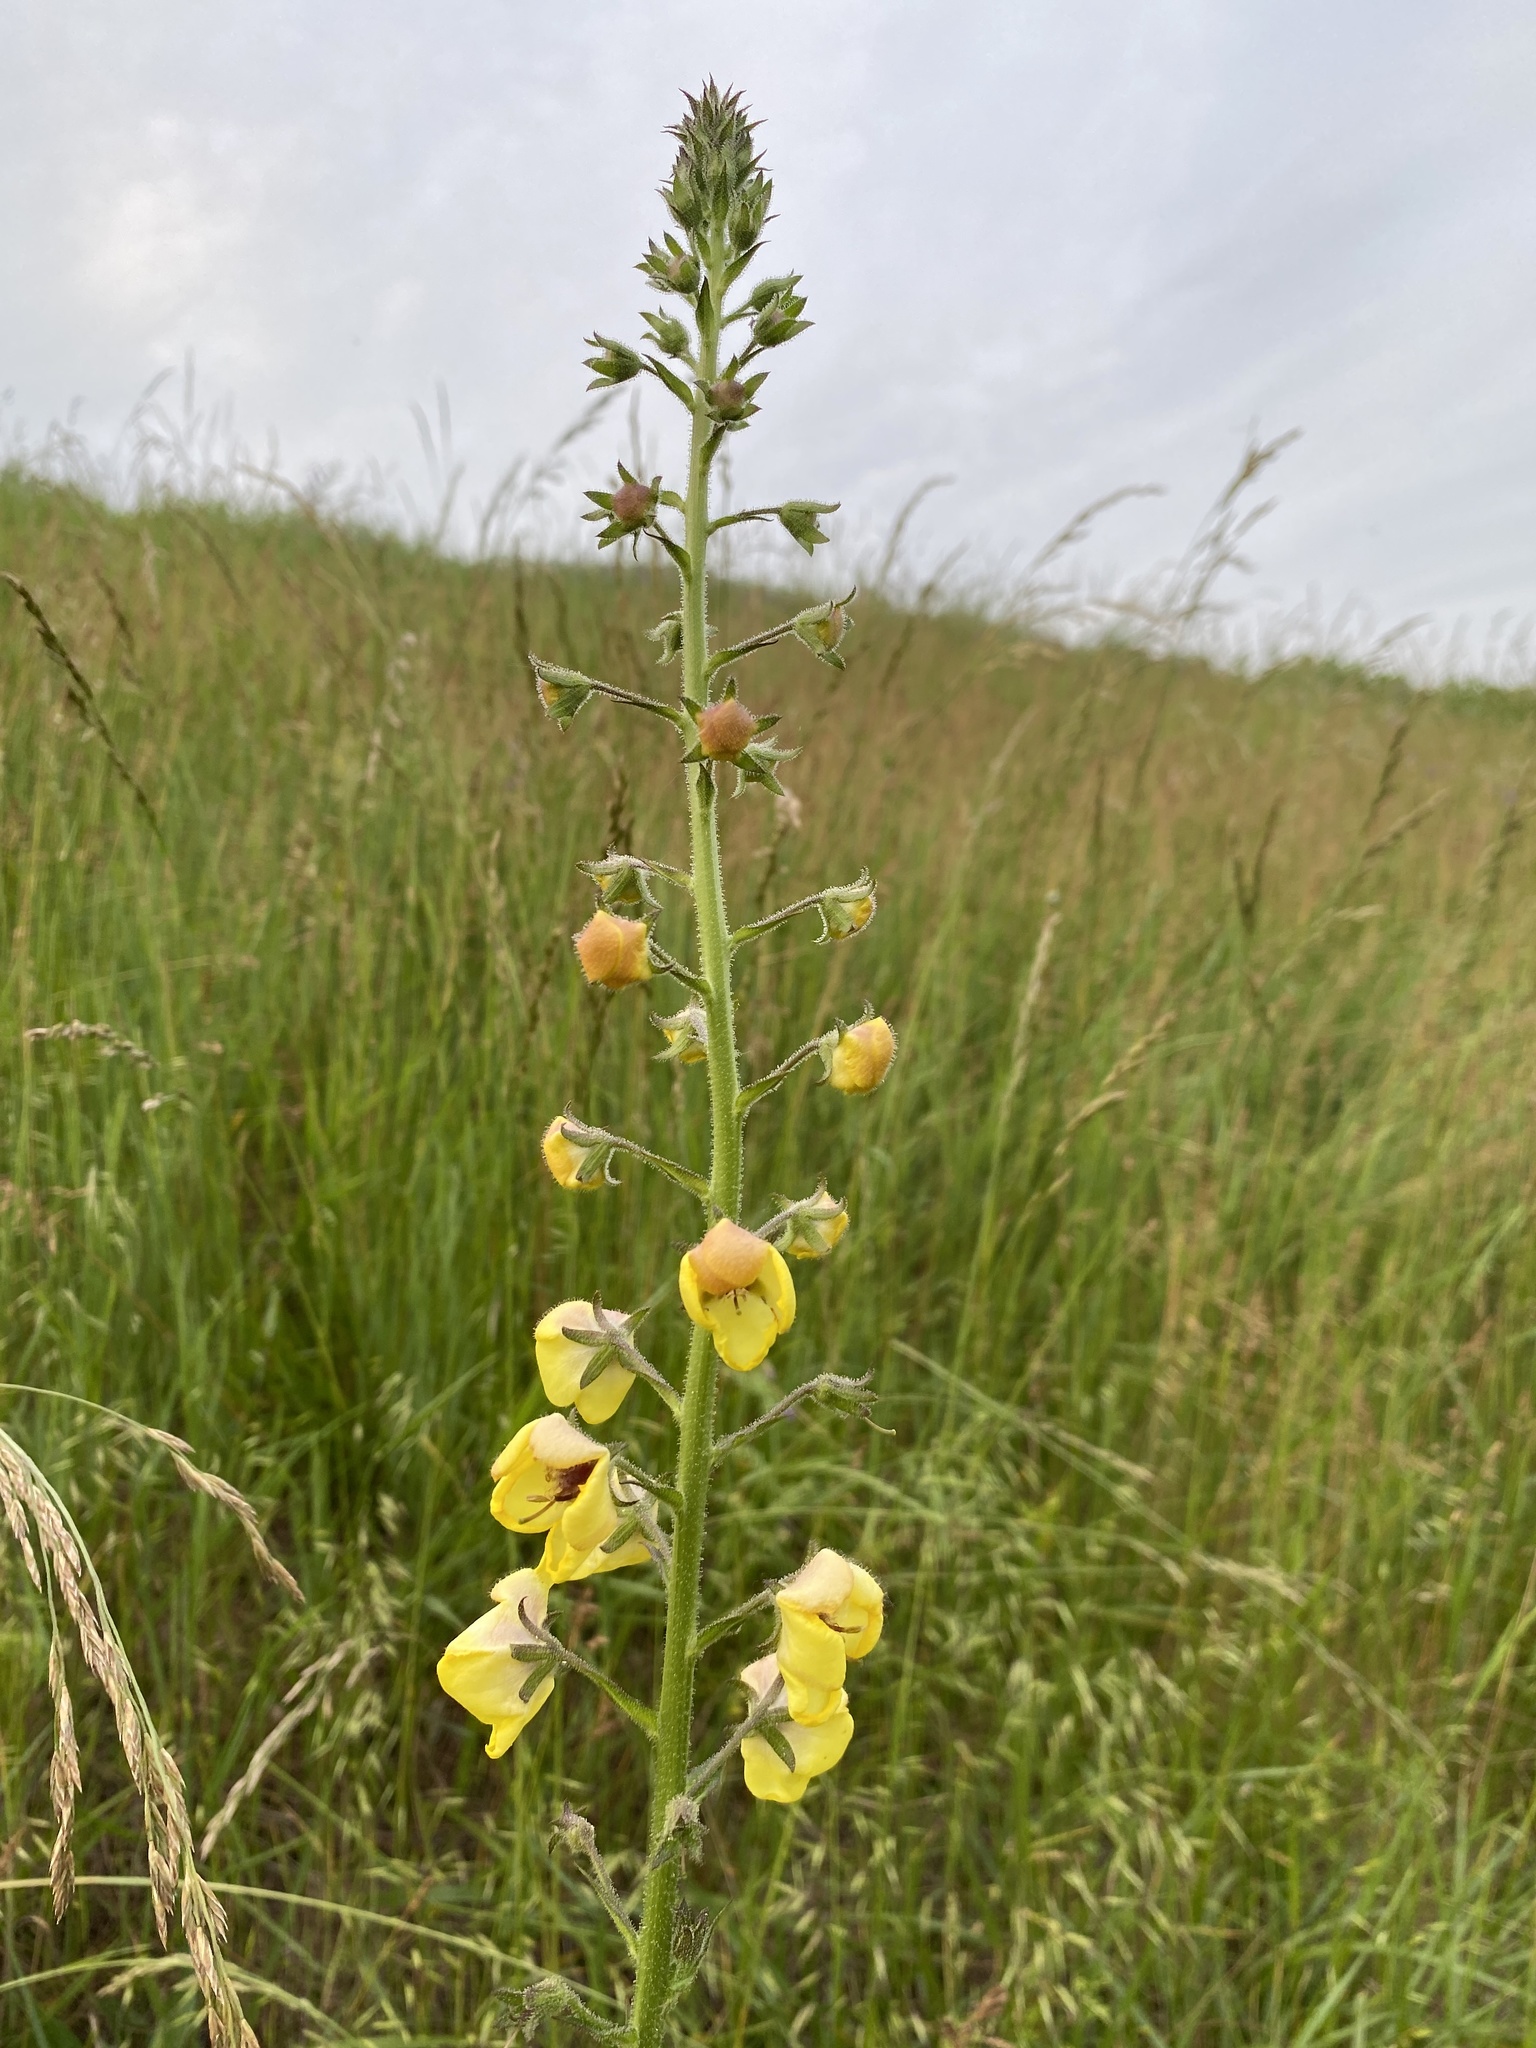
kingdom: Plantae
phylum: Tracheophyta
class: Magnoliopsida
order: Lamiales
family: Scrophulariaceae
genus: Verbascum
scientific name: Verbascum blattaria
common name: Moth mullein
